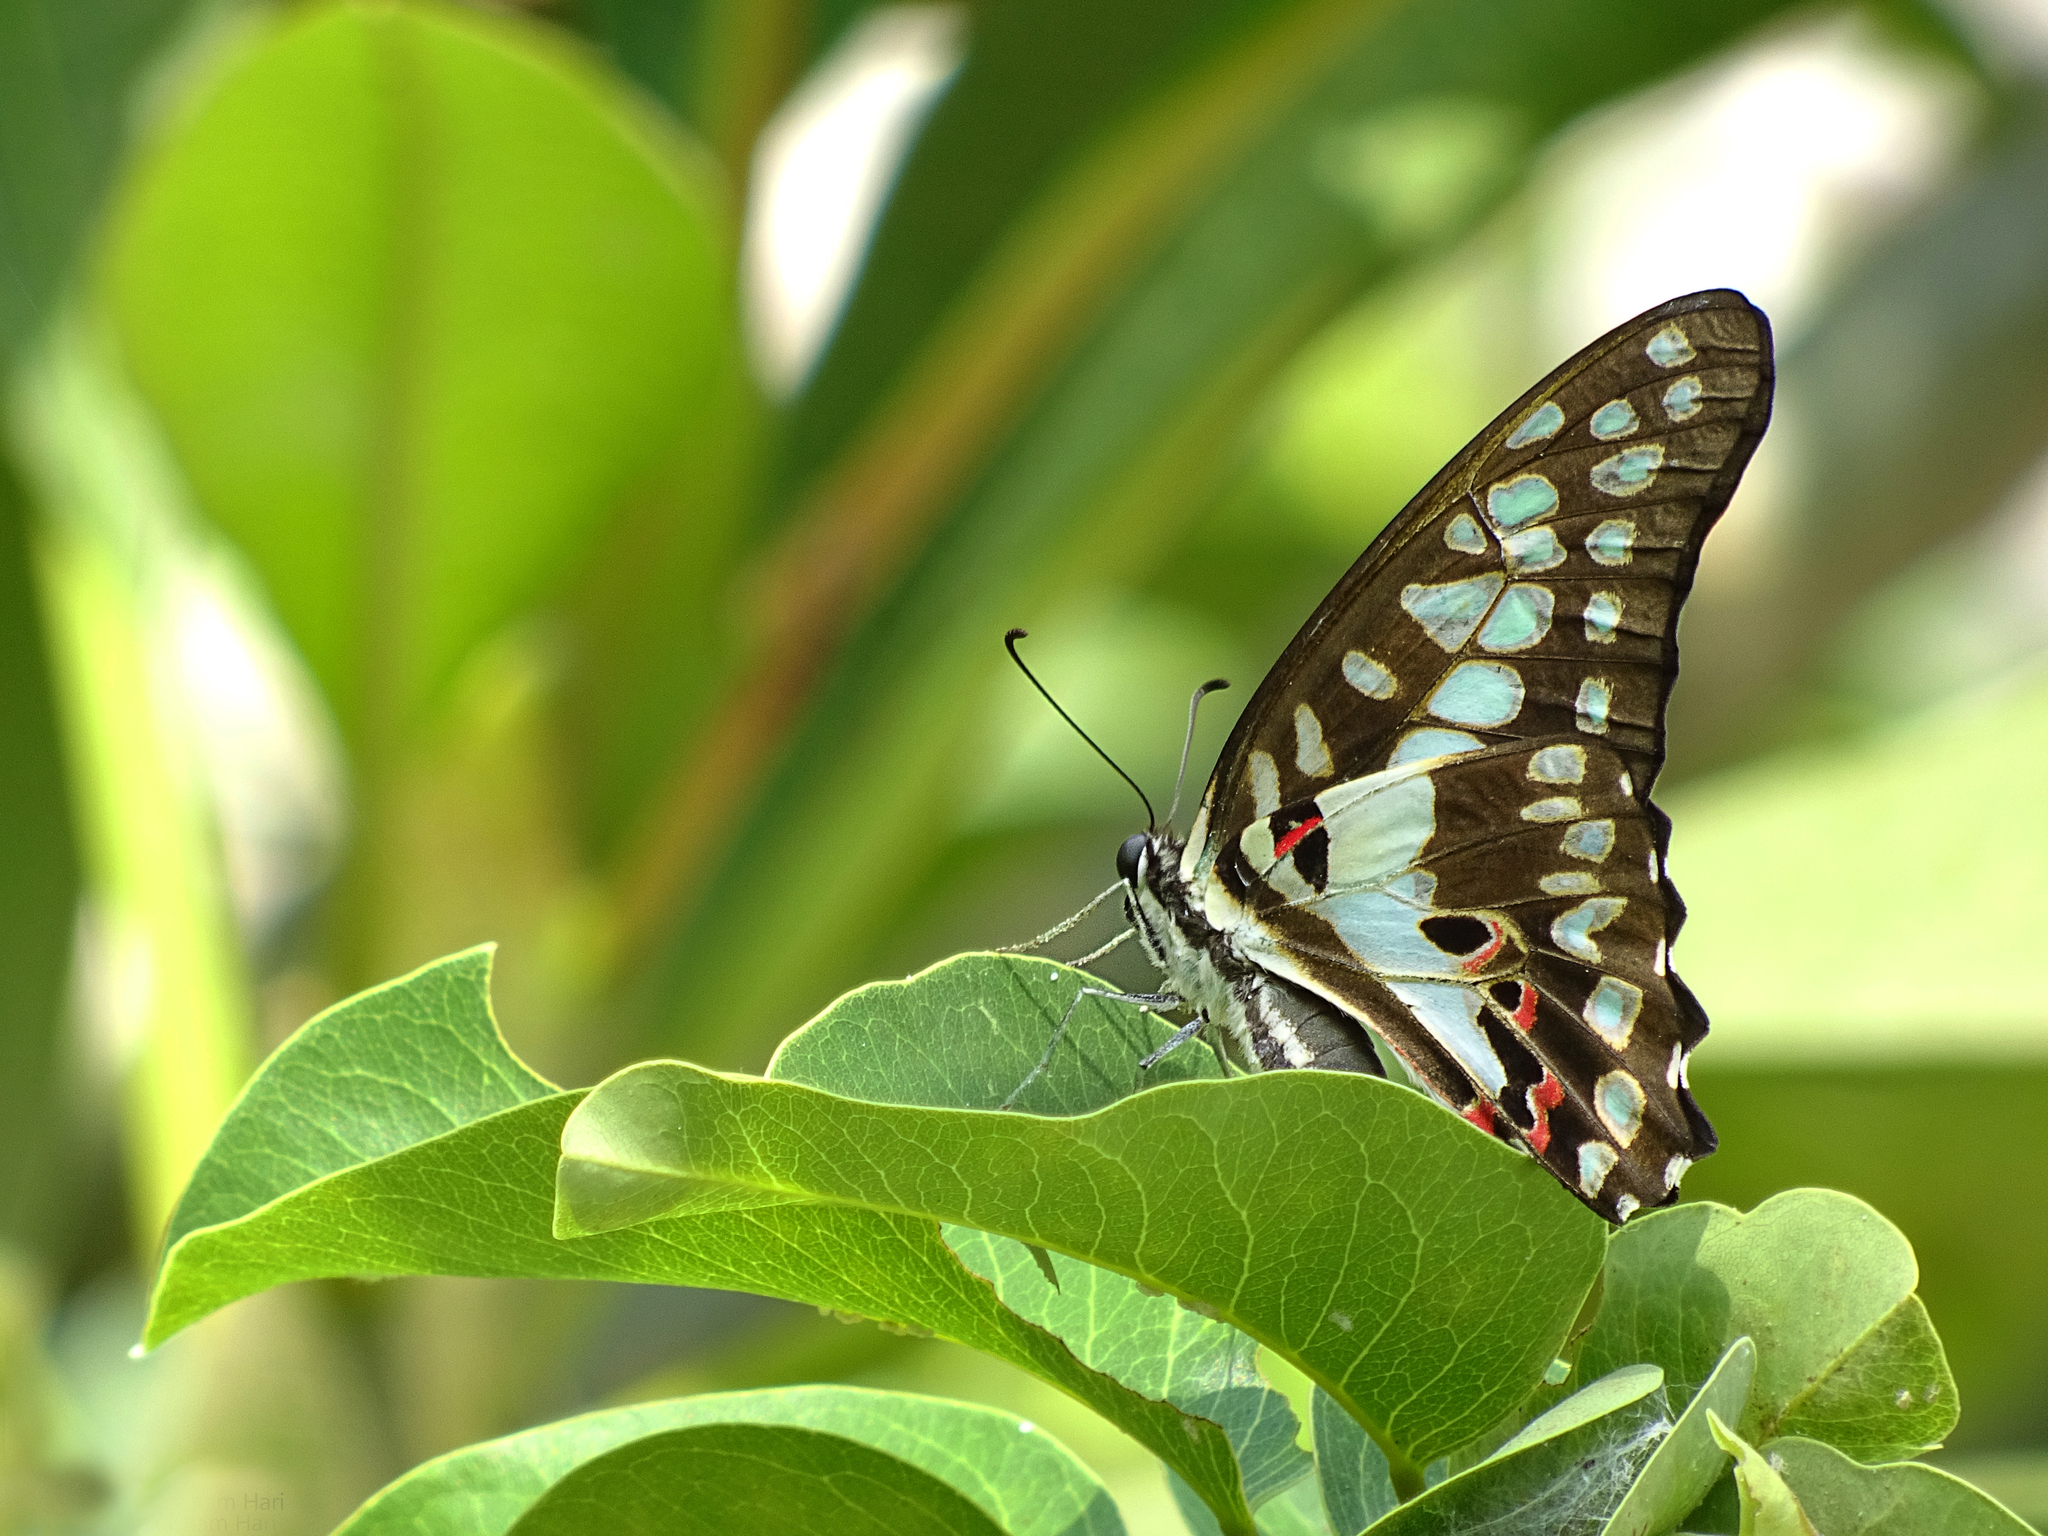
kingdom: Animalia
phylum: Arthropoda
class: Insecta
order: Lepidoptera
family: Papilionidae
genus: Graphium
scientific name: Graphium doson
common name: Common jay
